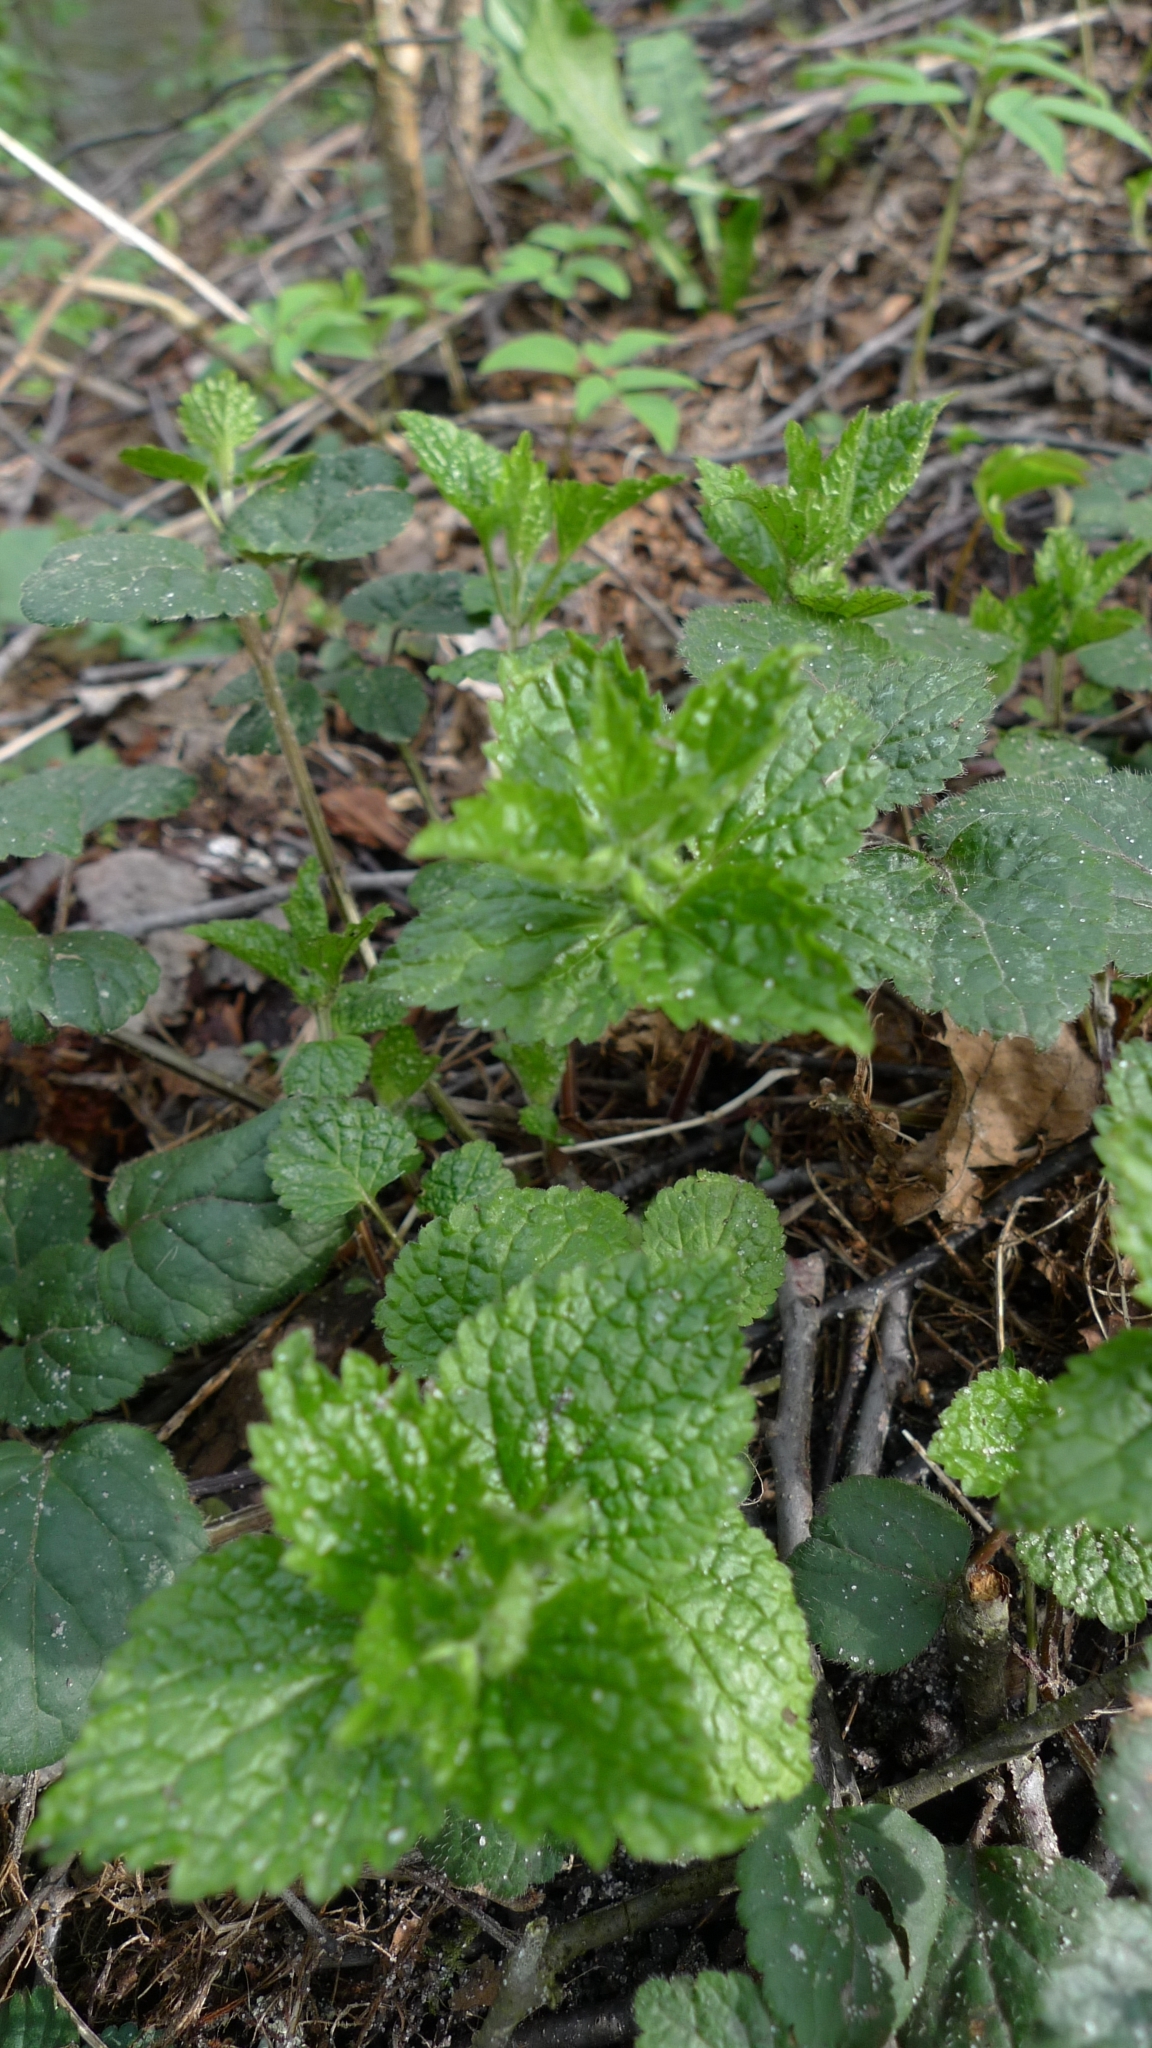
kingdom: Plantae
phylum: Tracheophyta
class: Magnoliopsida
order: Lamiales
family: Lamiaceae
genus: Lamium
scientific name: Lamium galeobdolon
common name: Yellow archangel
